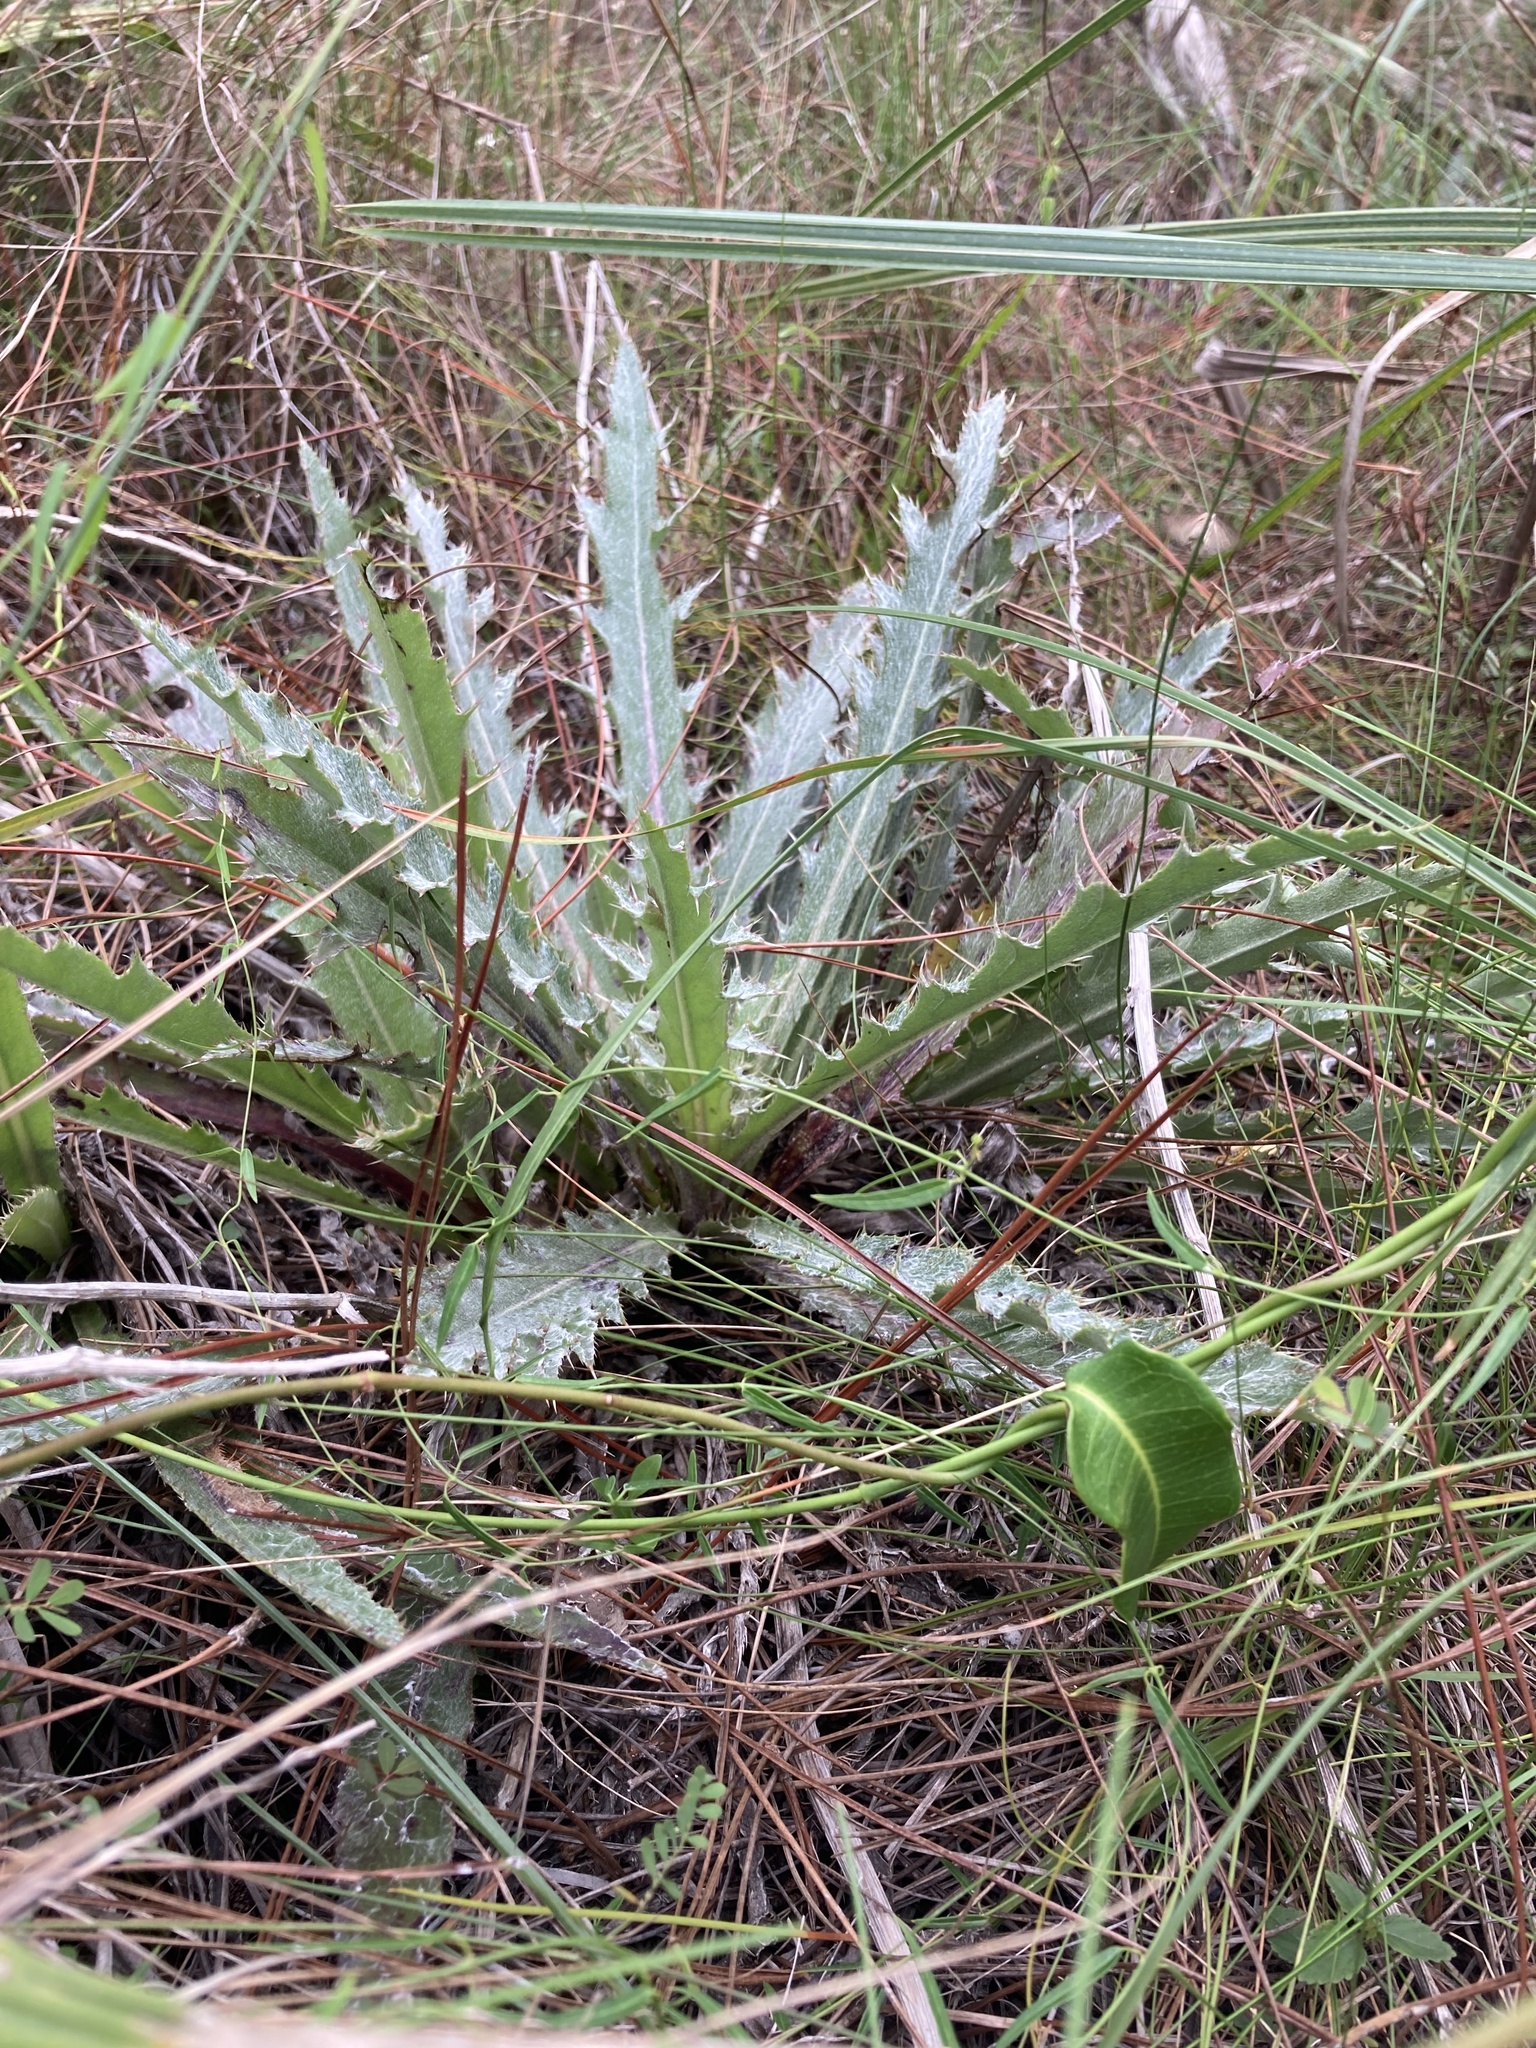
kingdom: Plantae
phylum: Tracheophyta
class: Magnoliopsida
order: Asterales
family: Asteraceae
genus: Cirsium
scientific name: Cirsium horridulum
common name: Bristly thistle
